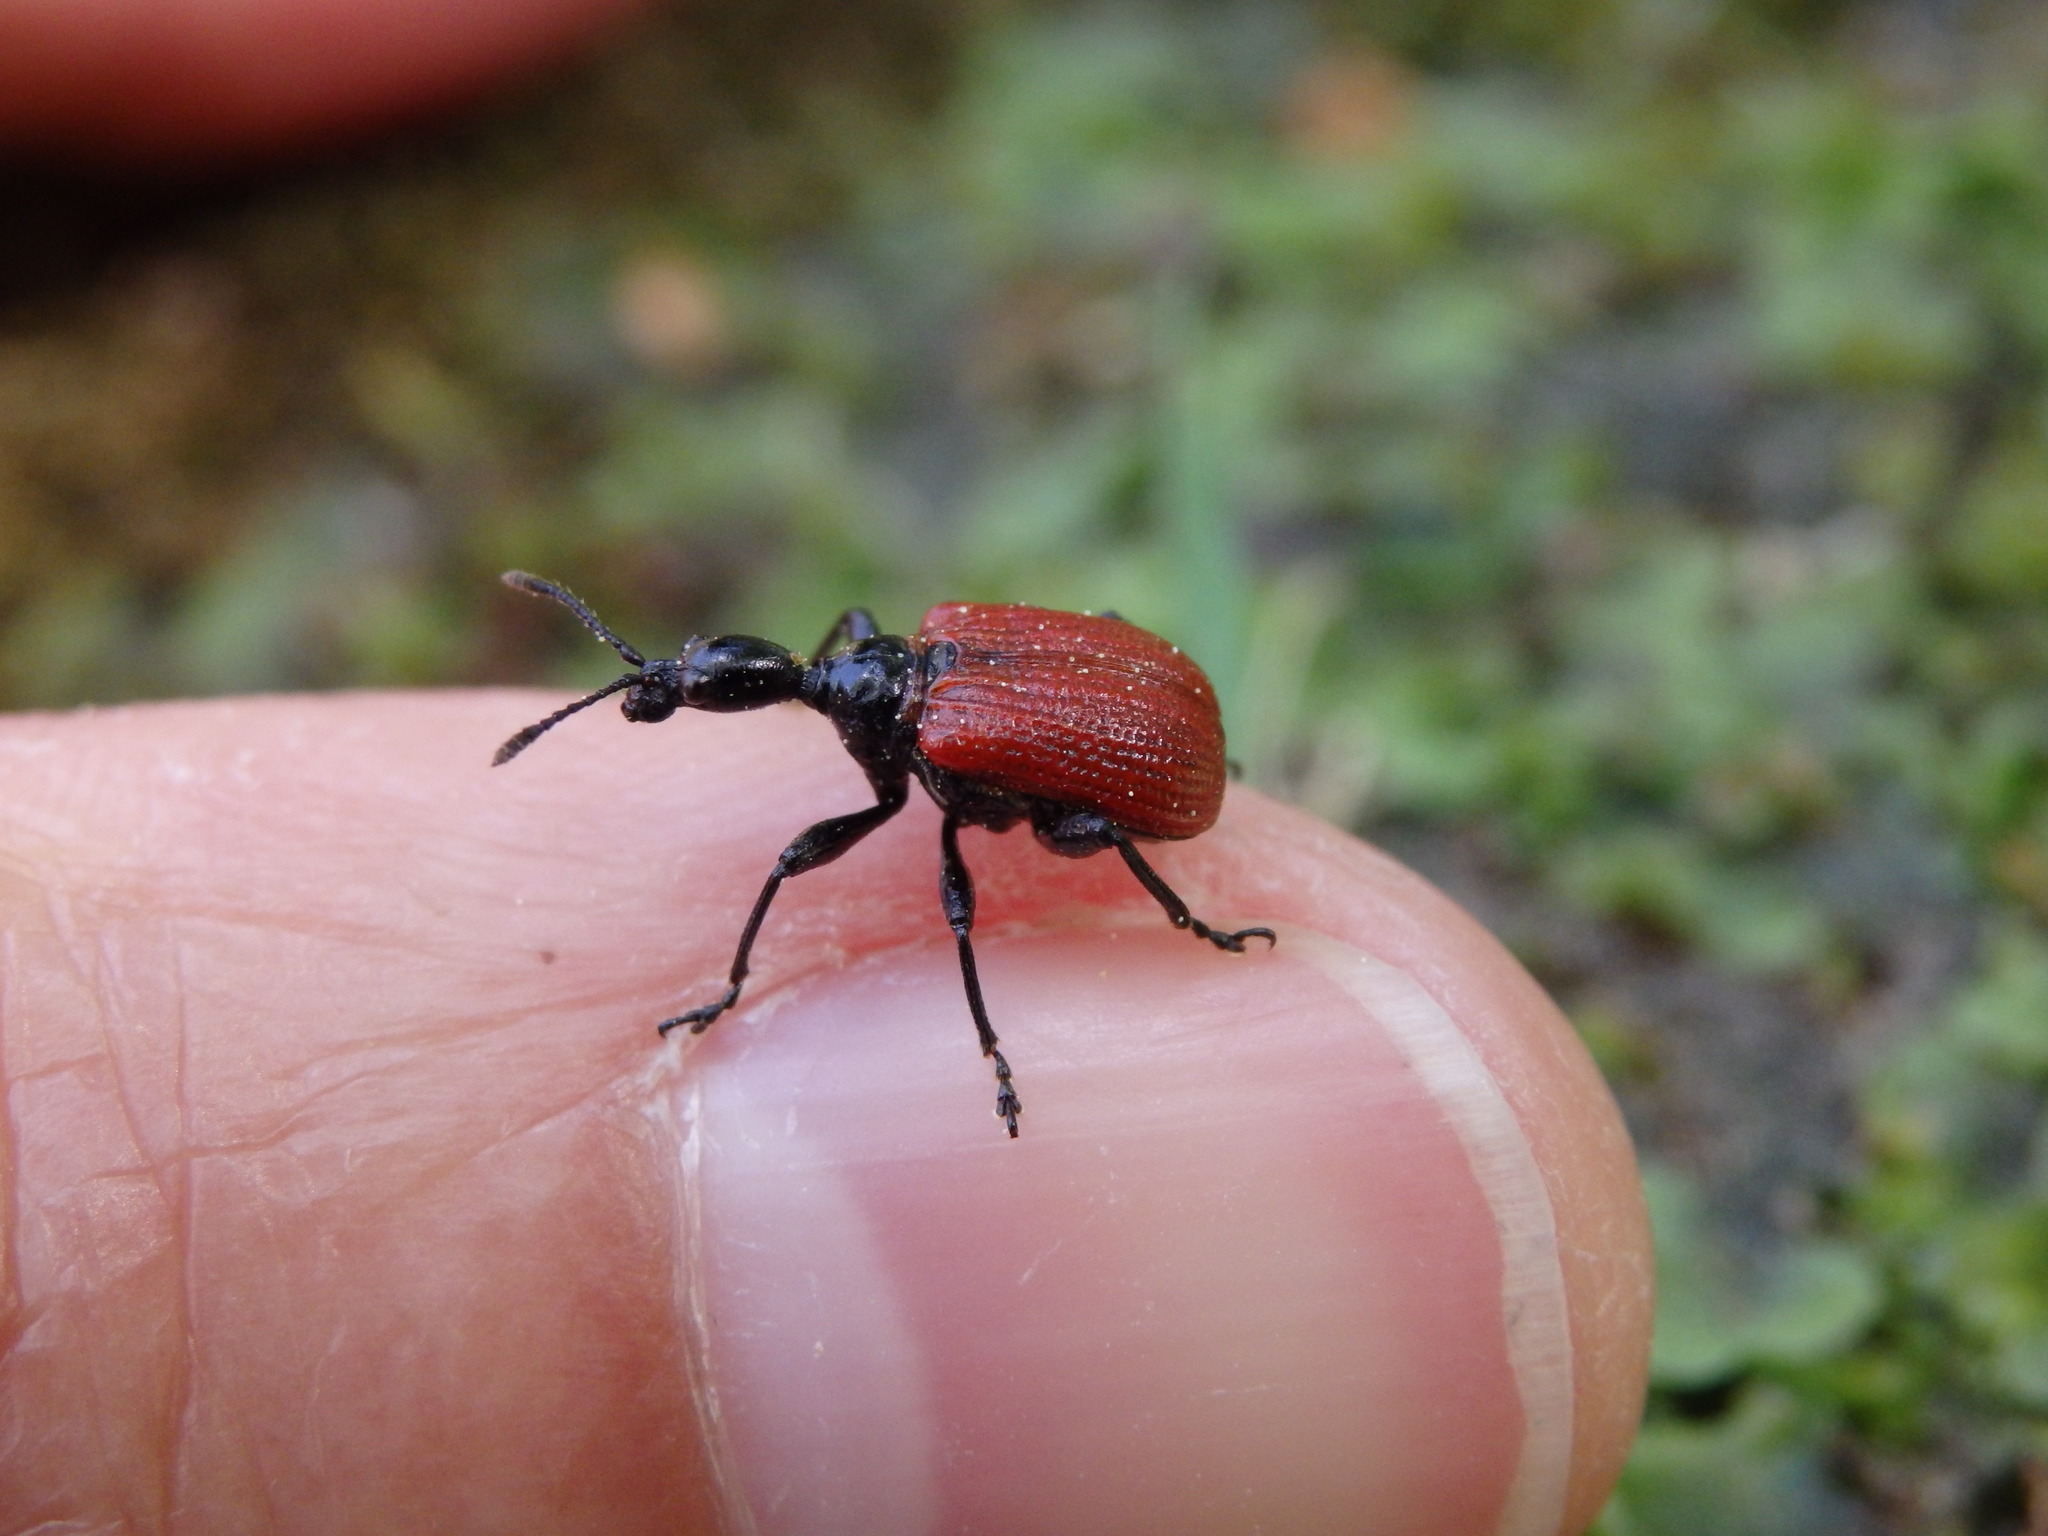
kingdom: Animalia
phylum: Arthropoda
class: Insecta
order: Coleoptera
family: Attelabidae
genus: Apoderus
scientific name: Apoderus coryli
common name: Hazel leaf roller
